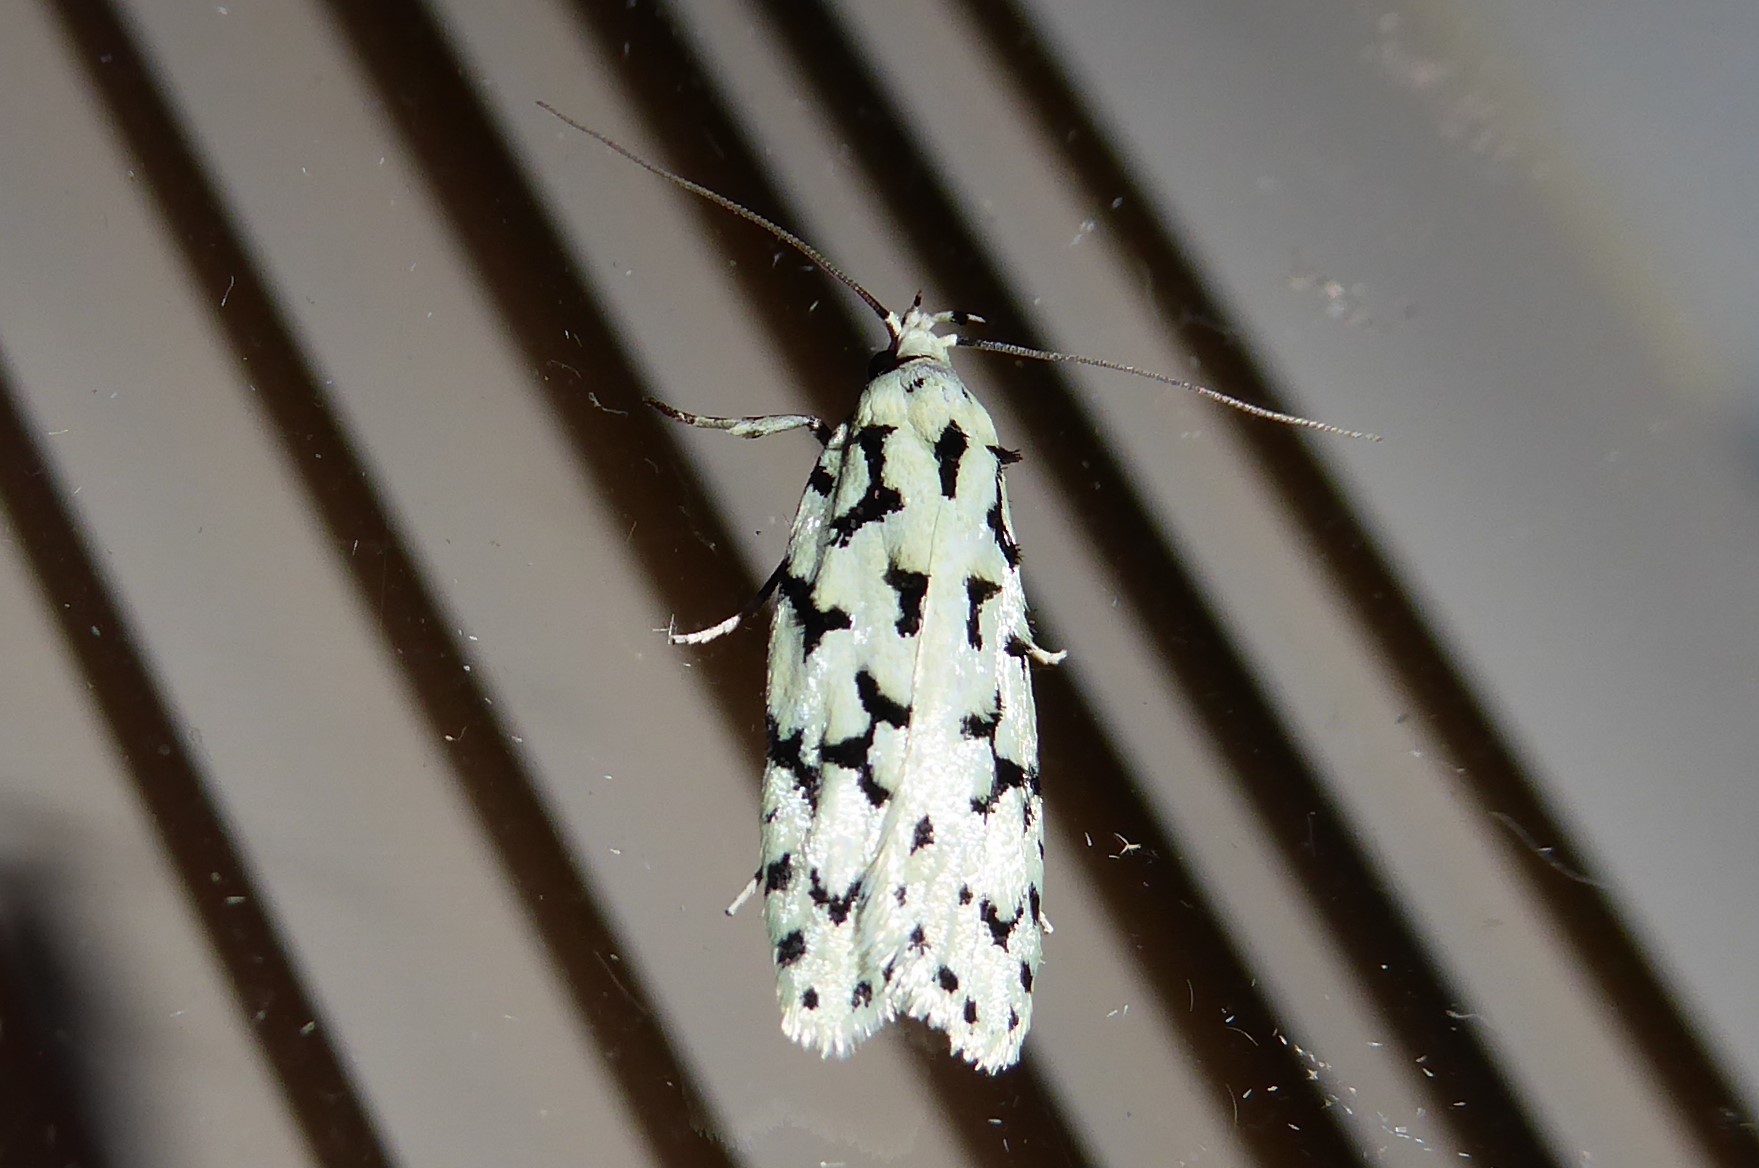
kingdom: Animalia
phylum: Arthropoda
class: Insecta
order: Lepidoptera
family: Oecophoridae
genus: Izatha
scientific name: Izatha huttoni
